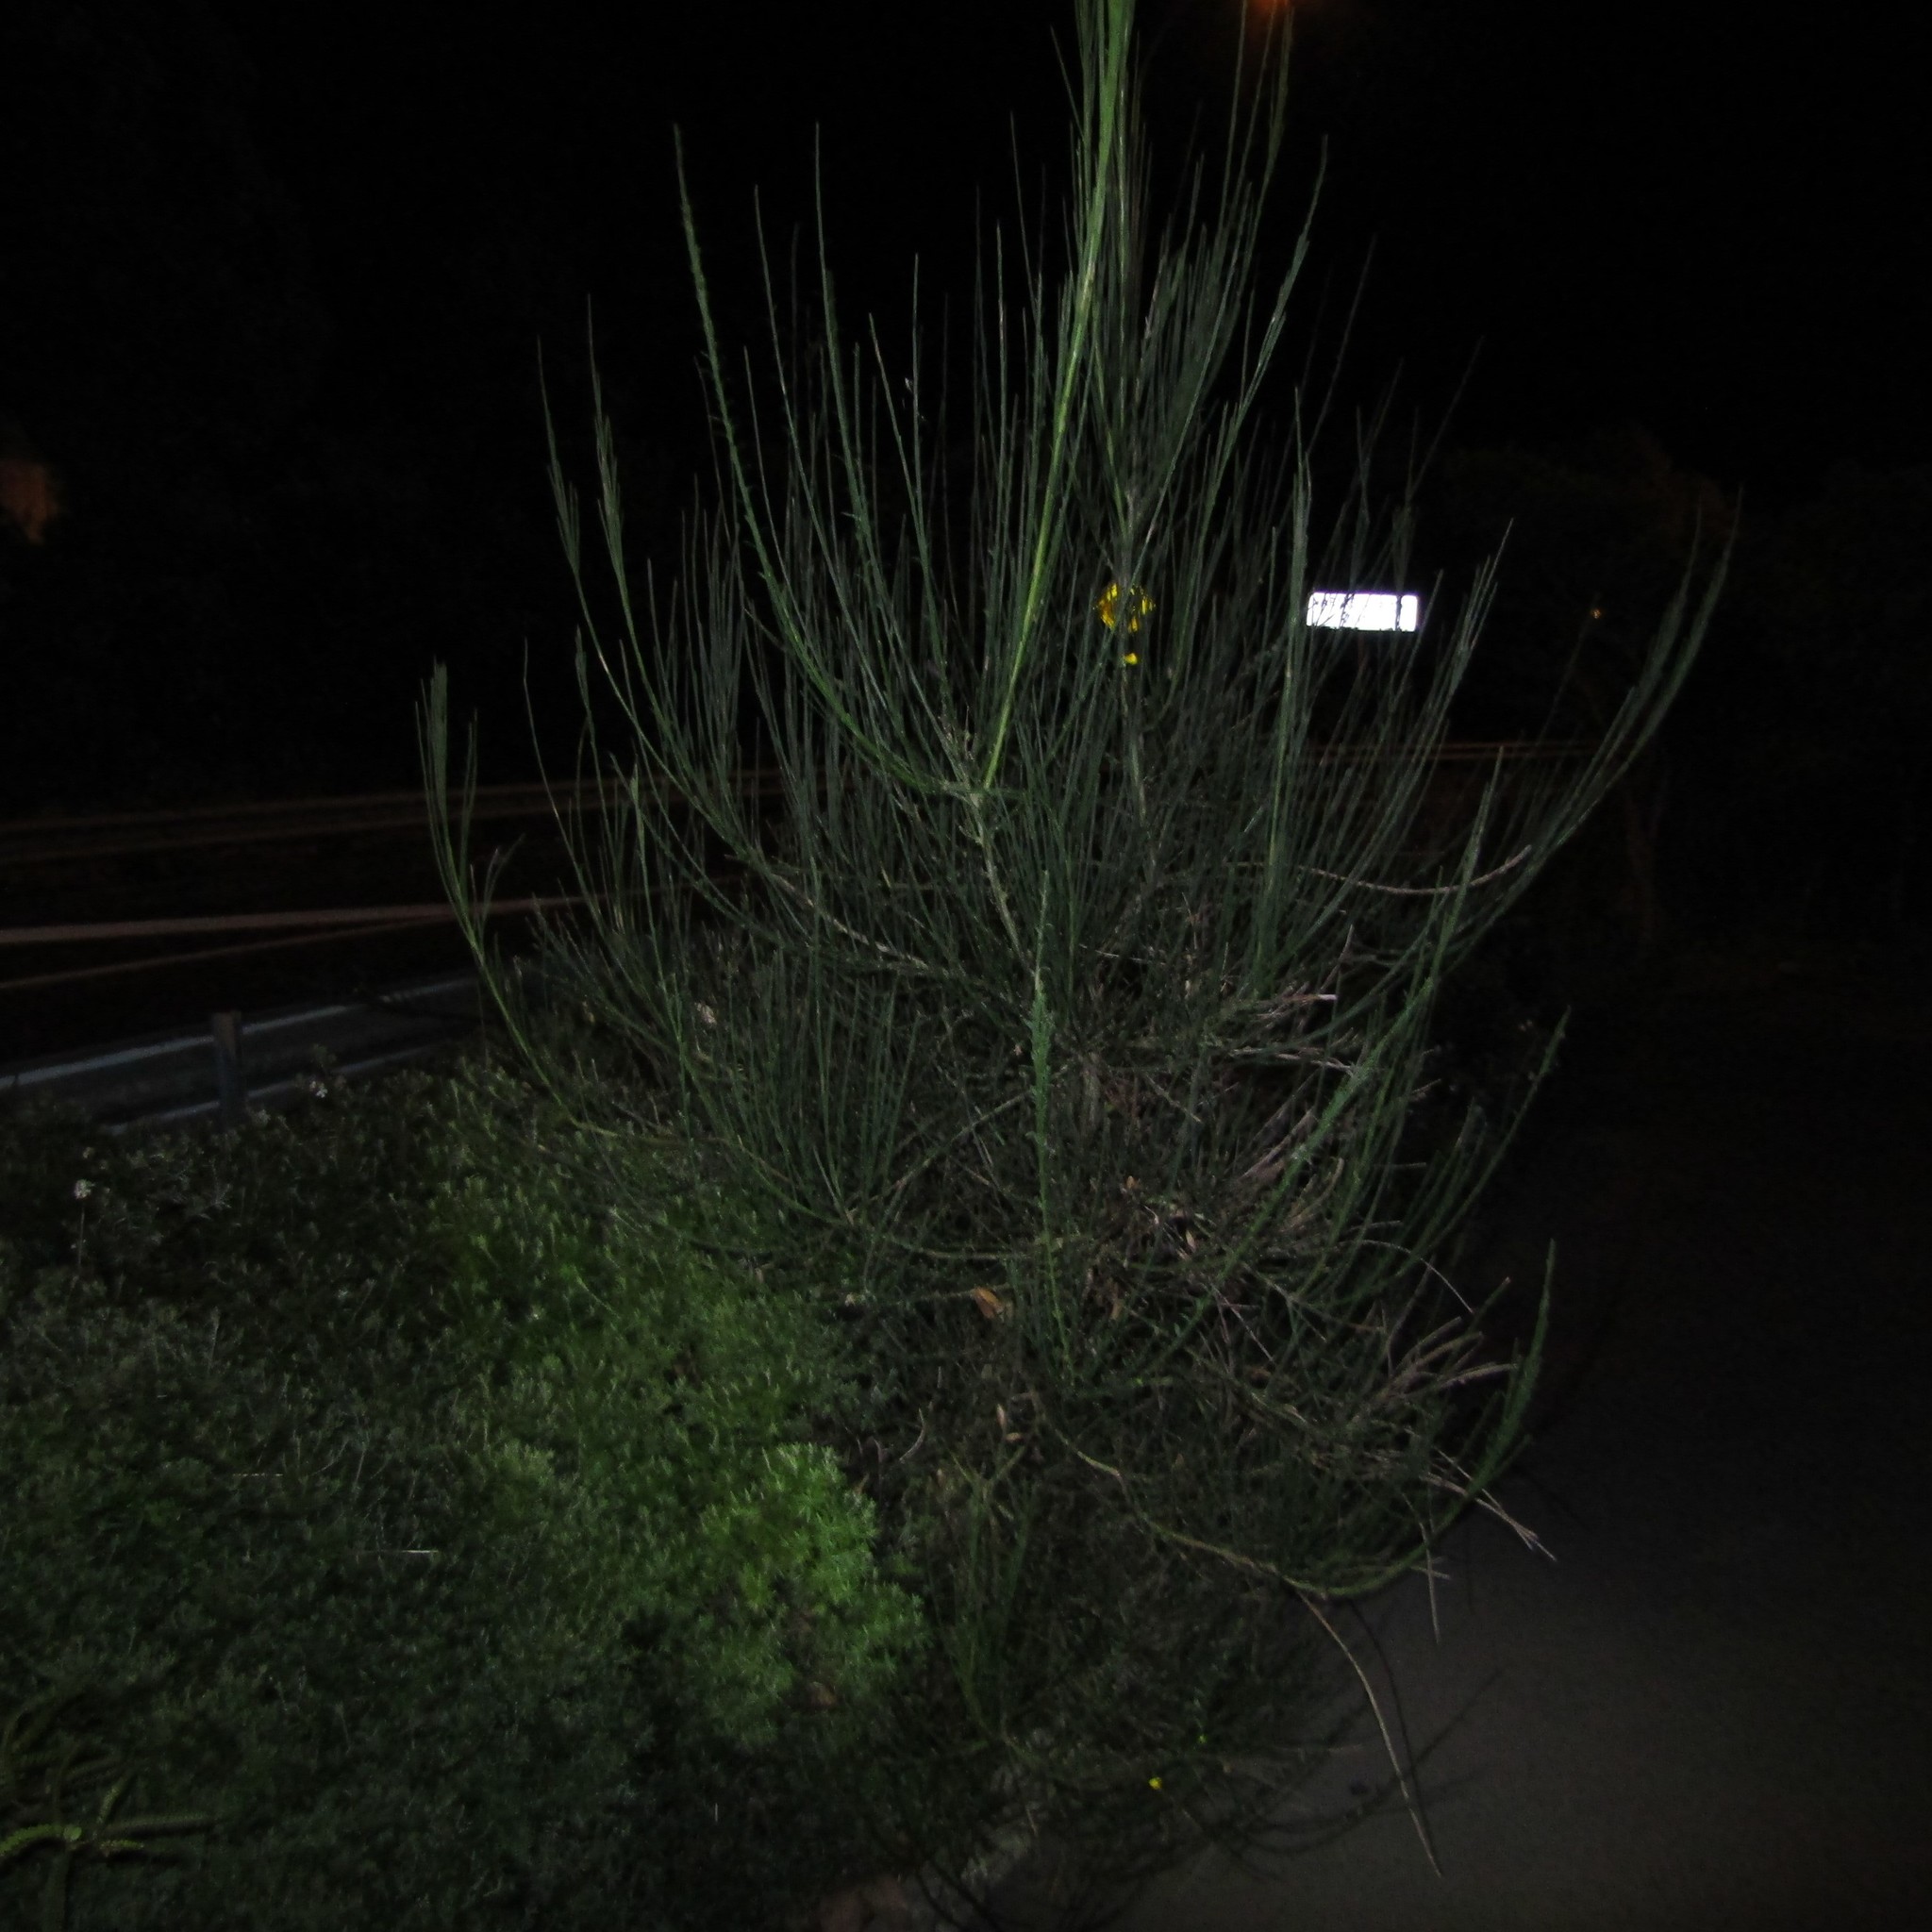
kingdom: Plantae
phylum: Tracheophyta
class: Magnoliopsida
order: Fabales
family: Fabaceae
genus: Cytisus
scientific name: Cytisus scoparius
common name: Scotch broom
